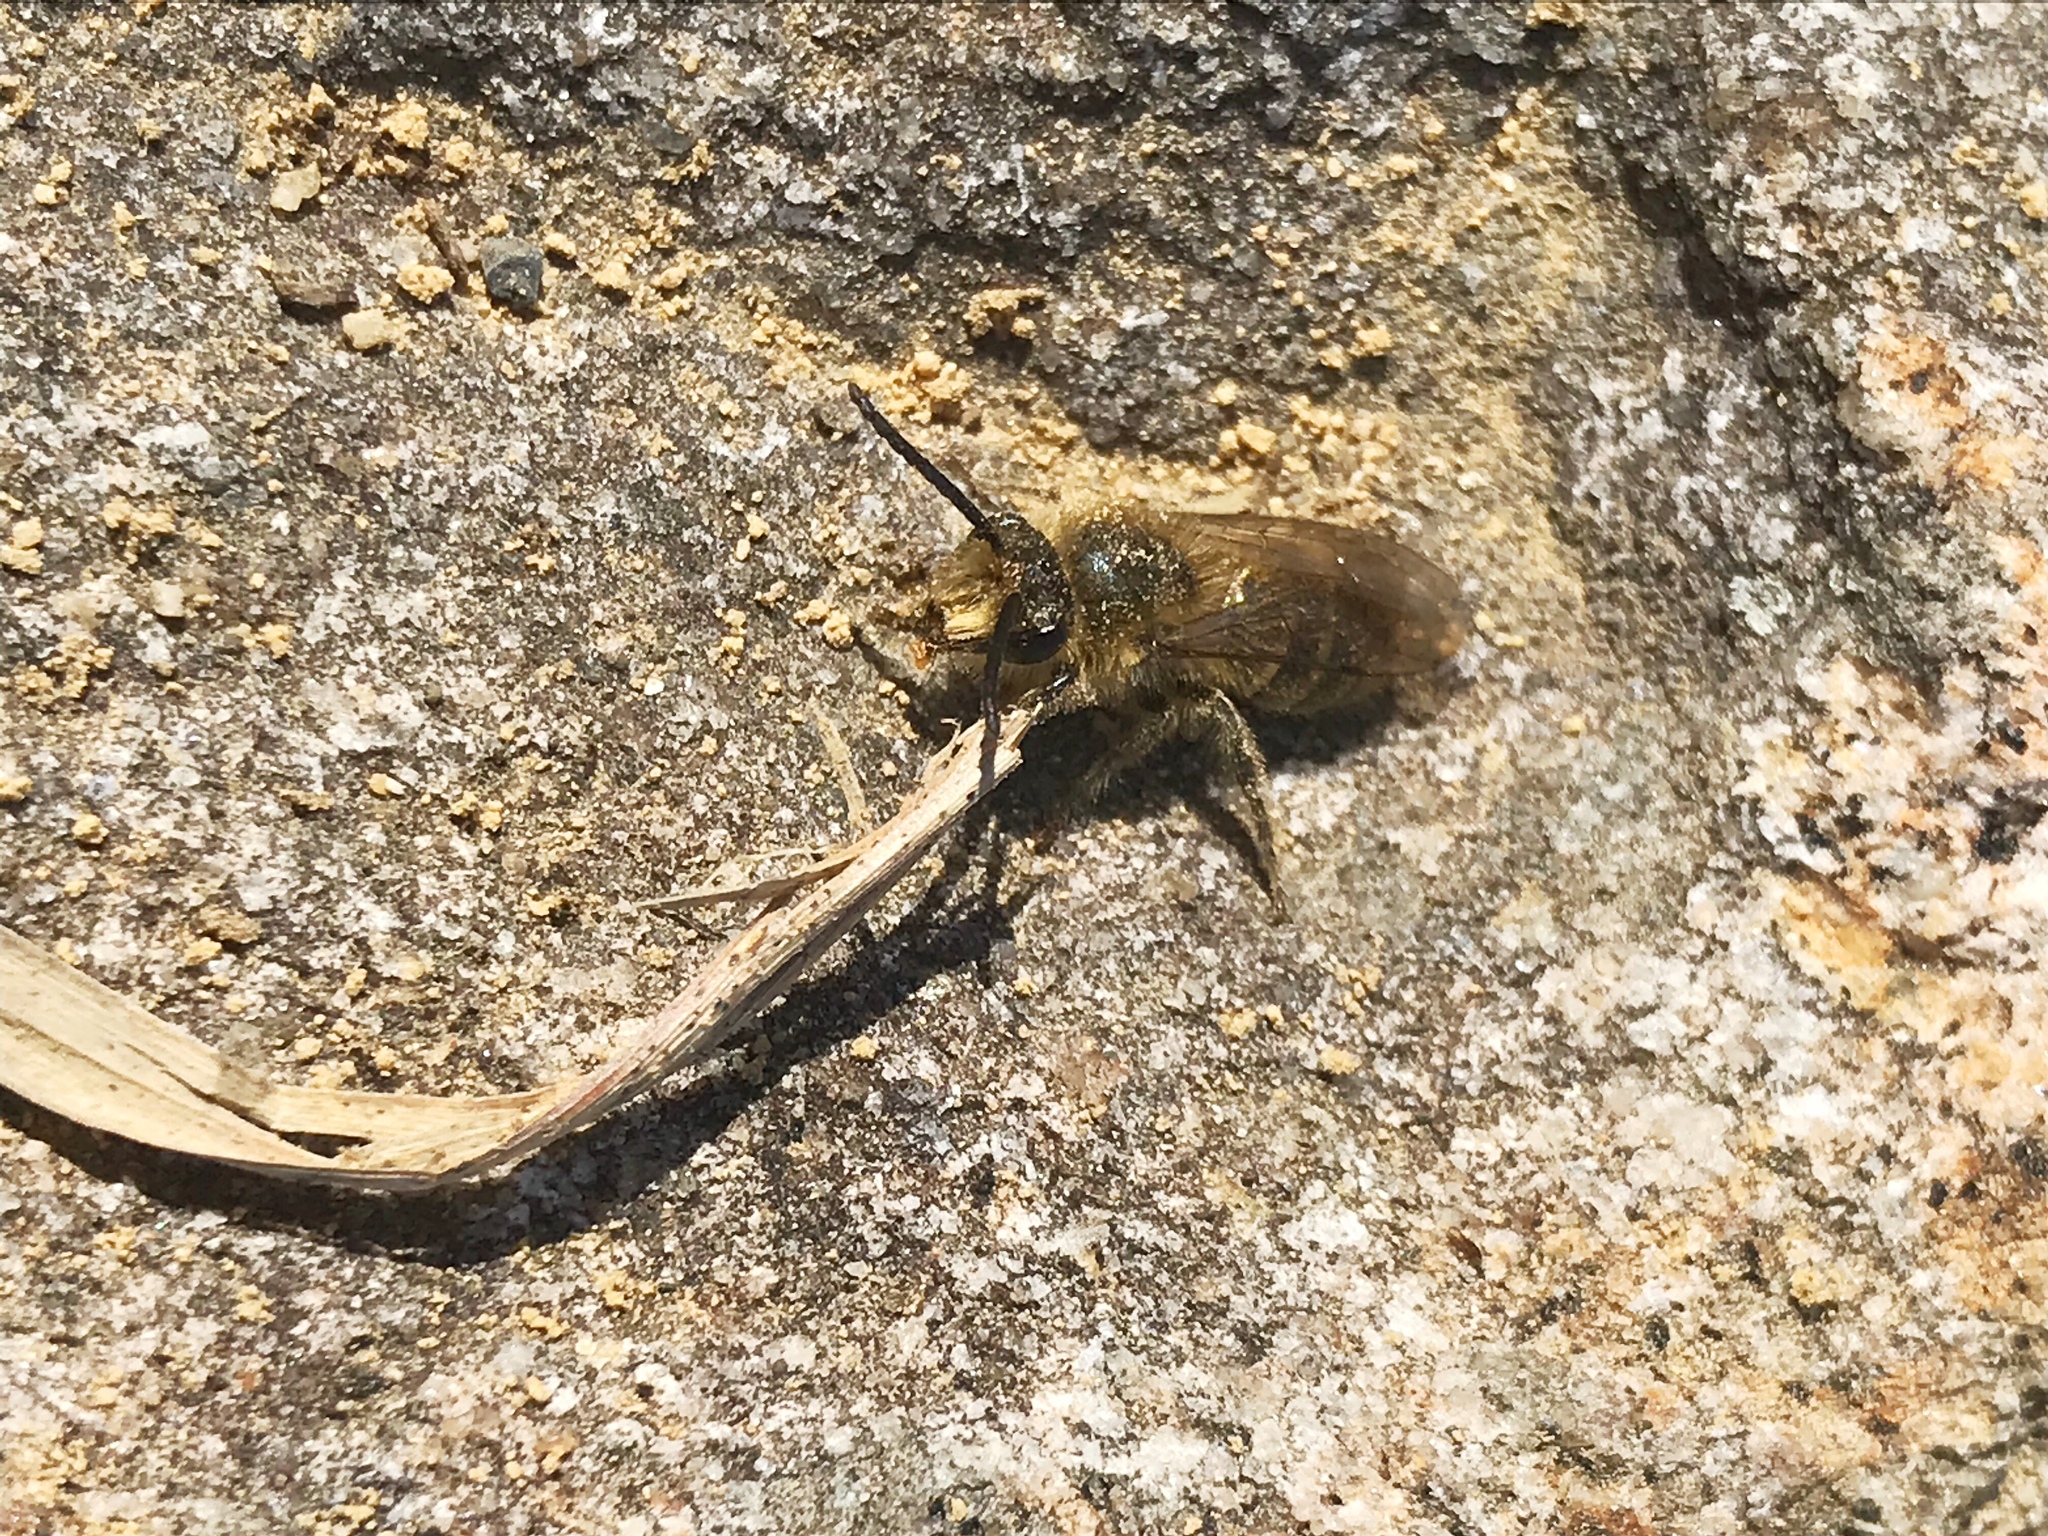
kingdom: Animalia
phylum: Arthropoda
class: Insecta
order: Hymenoptera
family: Colletidae
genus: Colletes
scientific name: Colletes inaequalis
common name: Unequal cellophane bee
